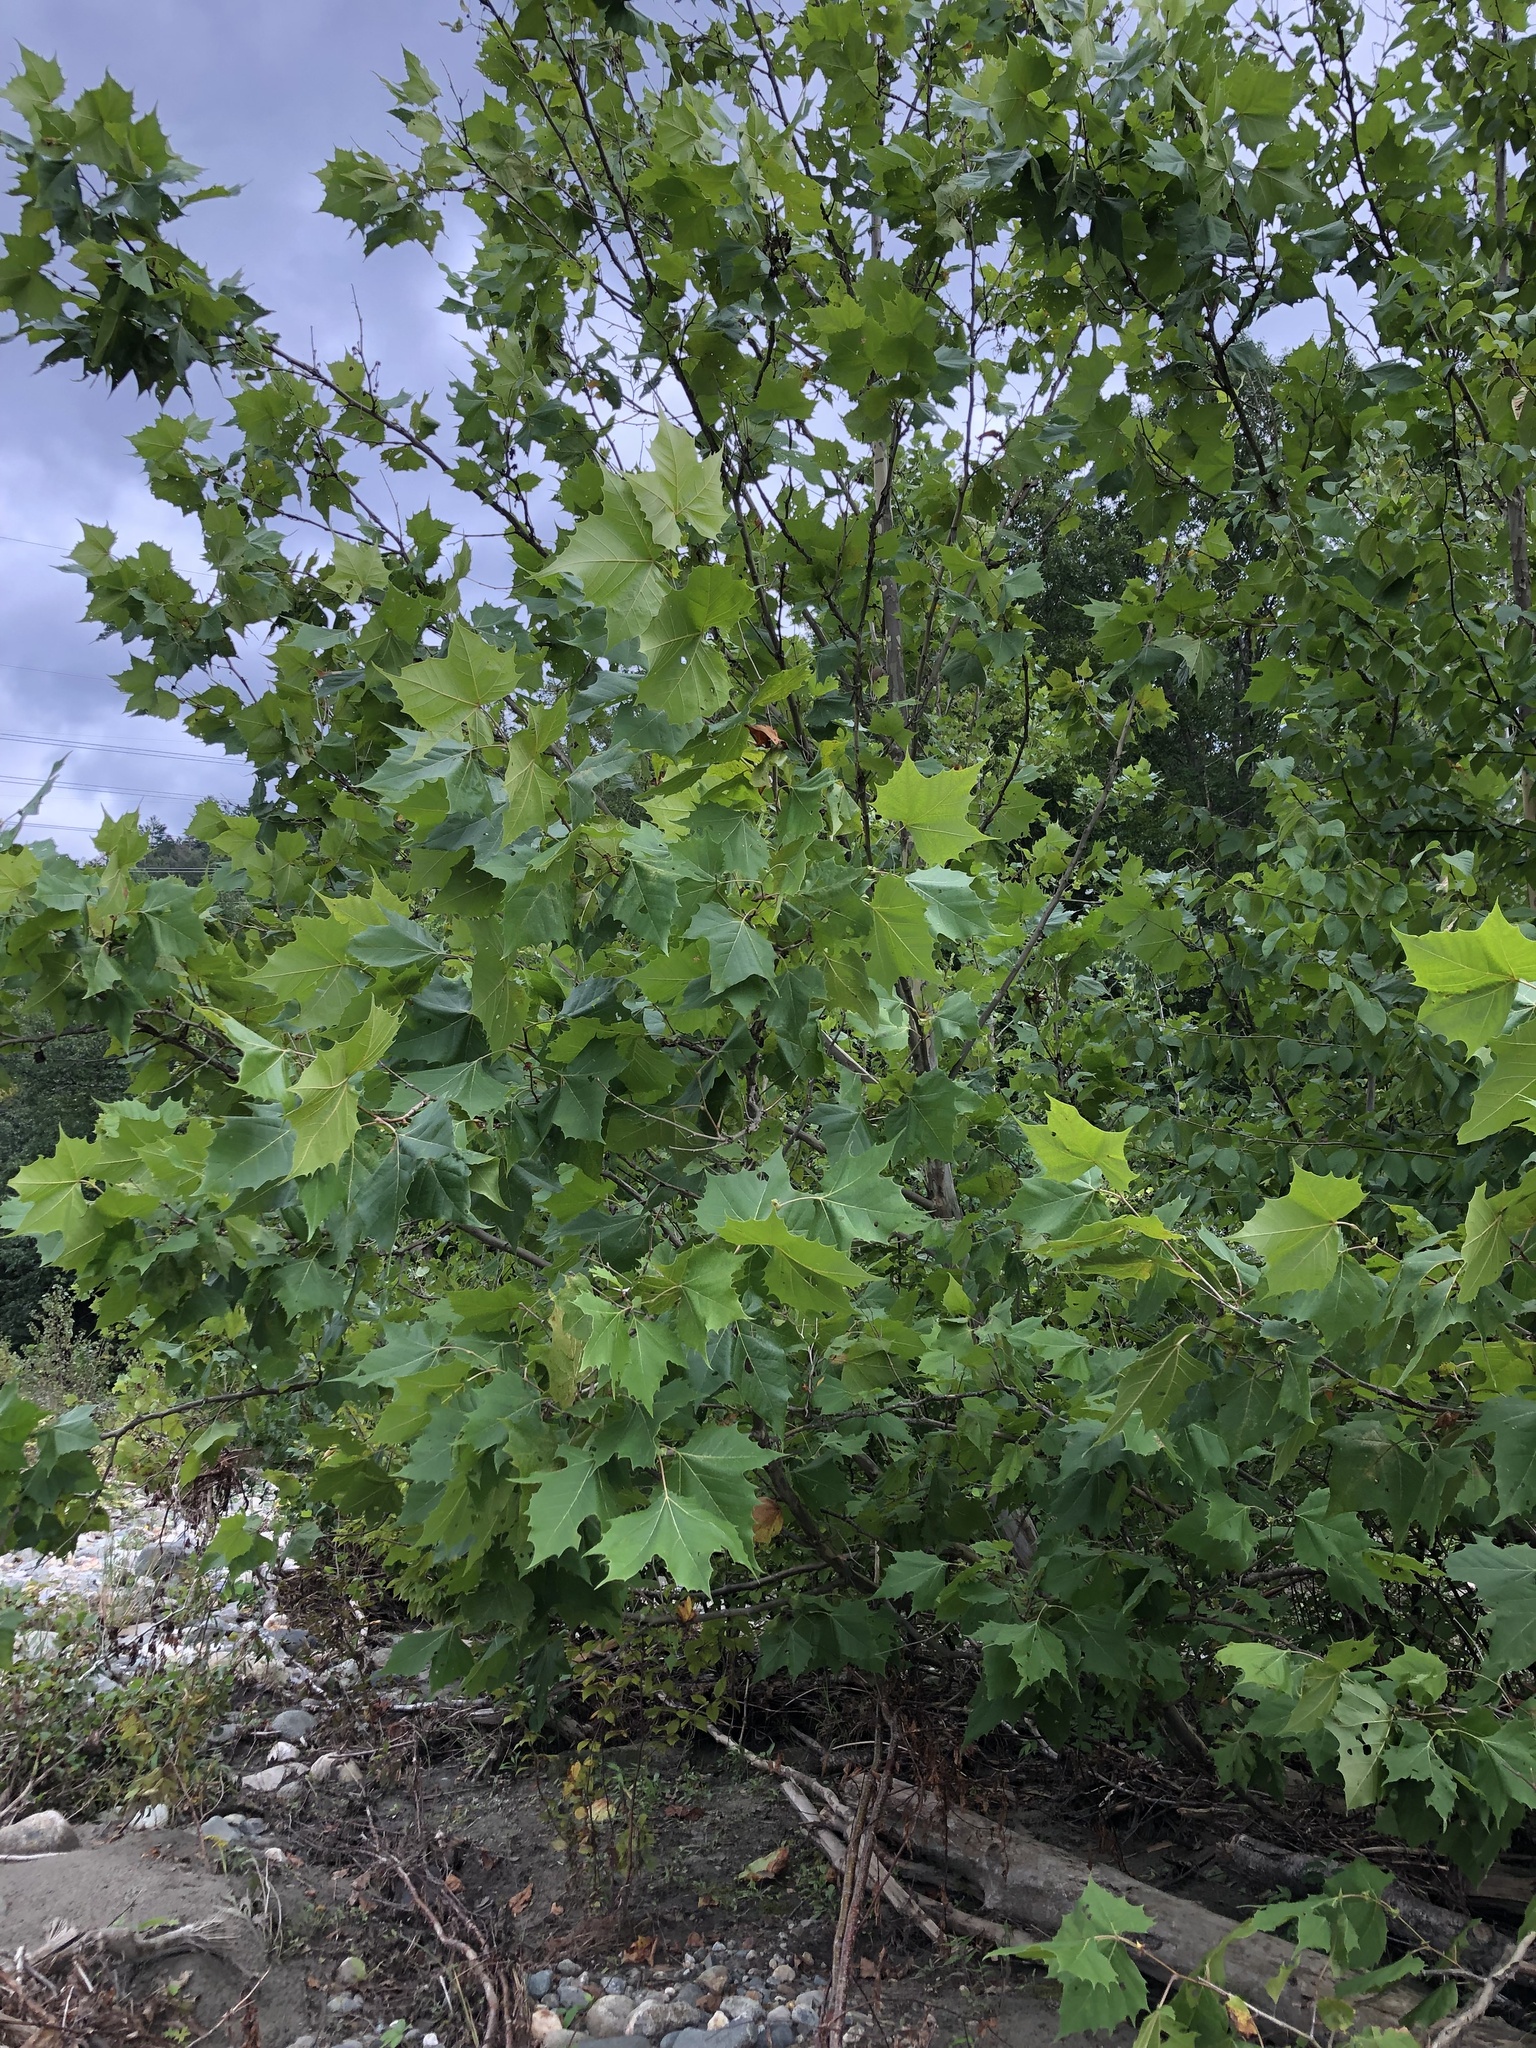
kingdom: Plantae
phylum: Tracheophyta
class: Magnoliopsida
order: Proteales
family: Platanaceae
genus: Platanus
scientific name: Platanus occidentalis
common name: American sycamore
